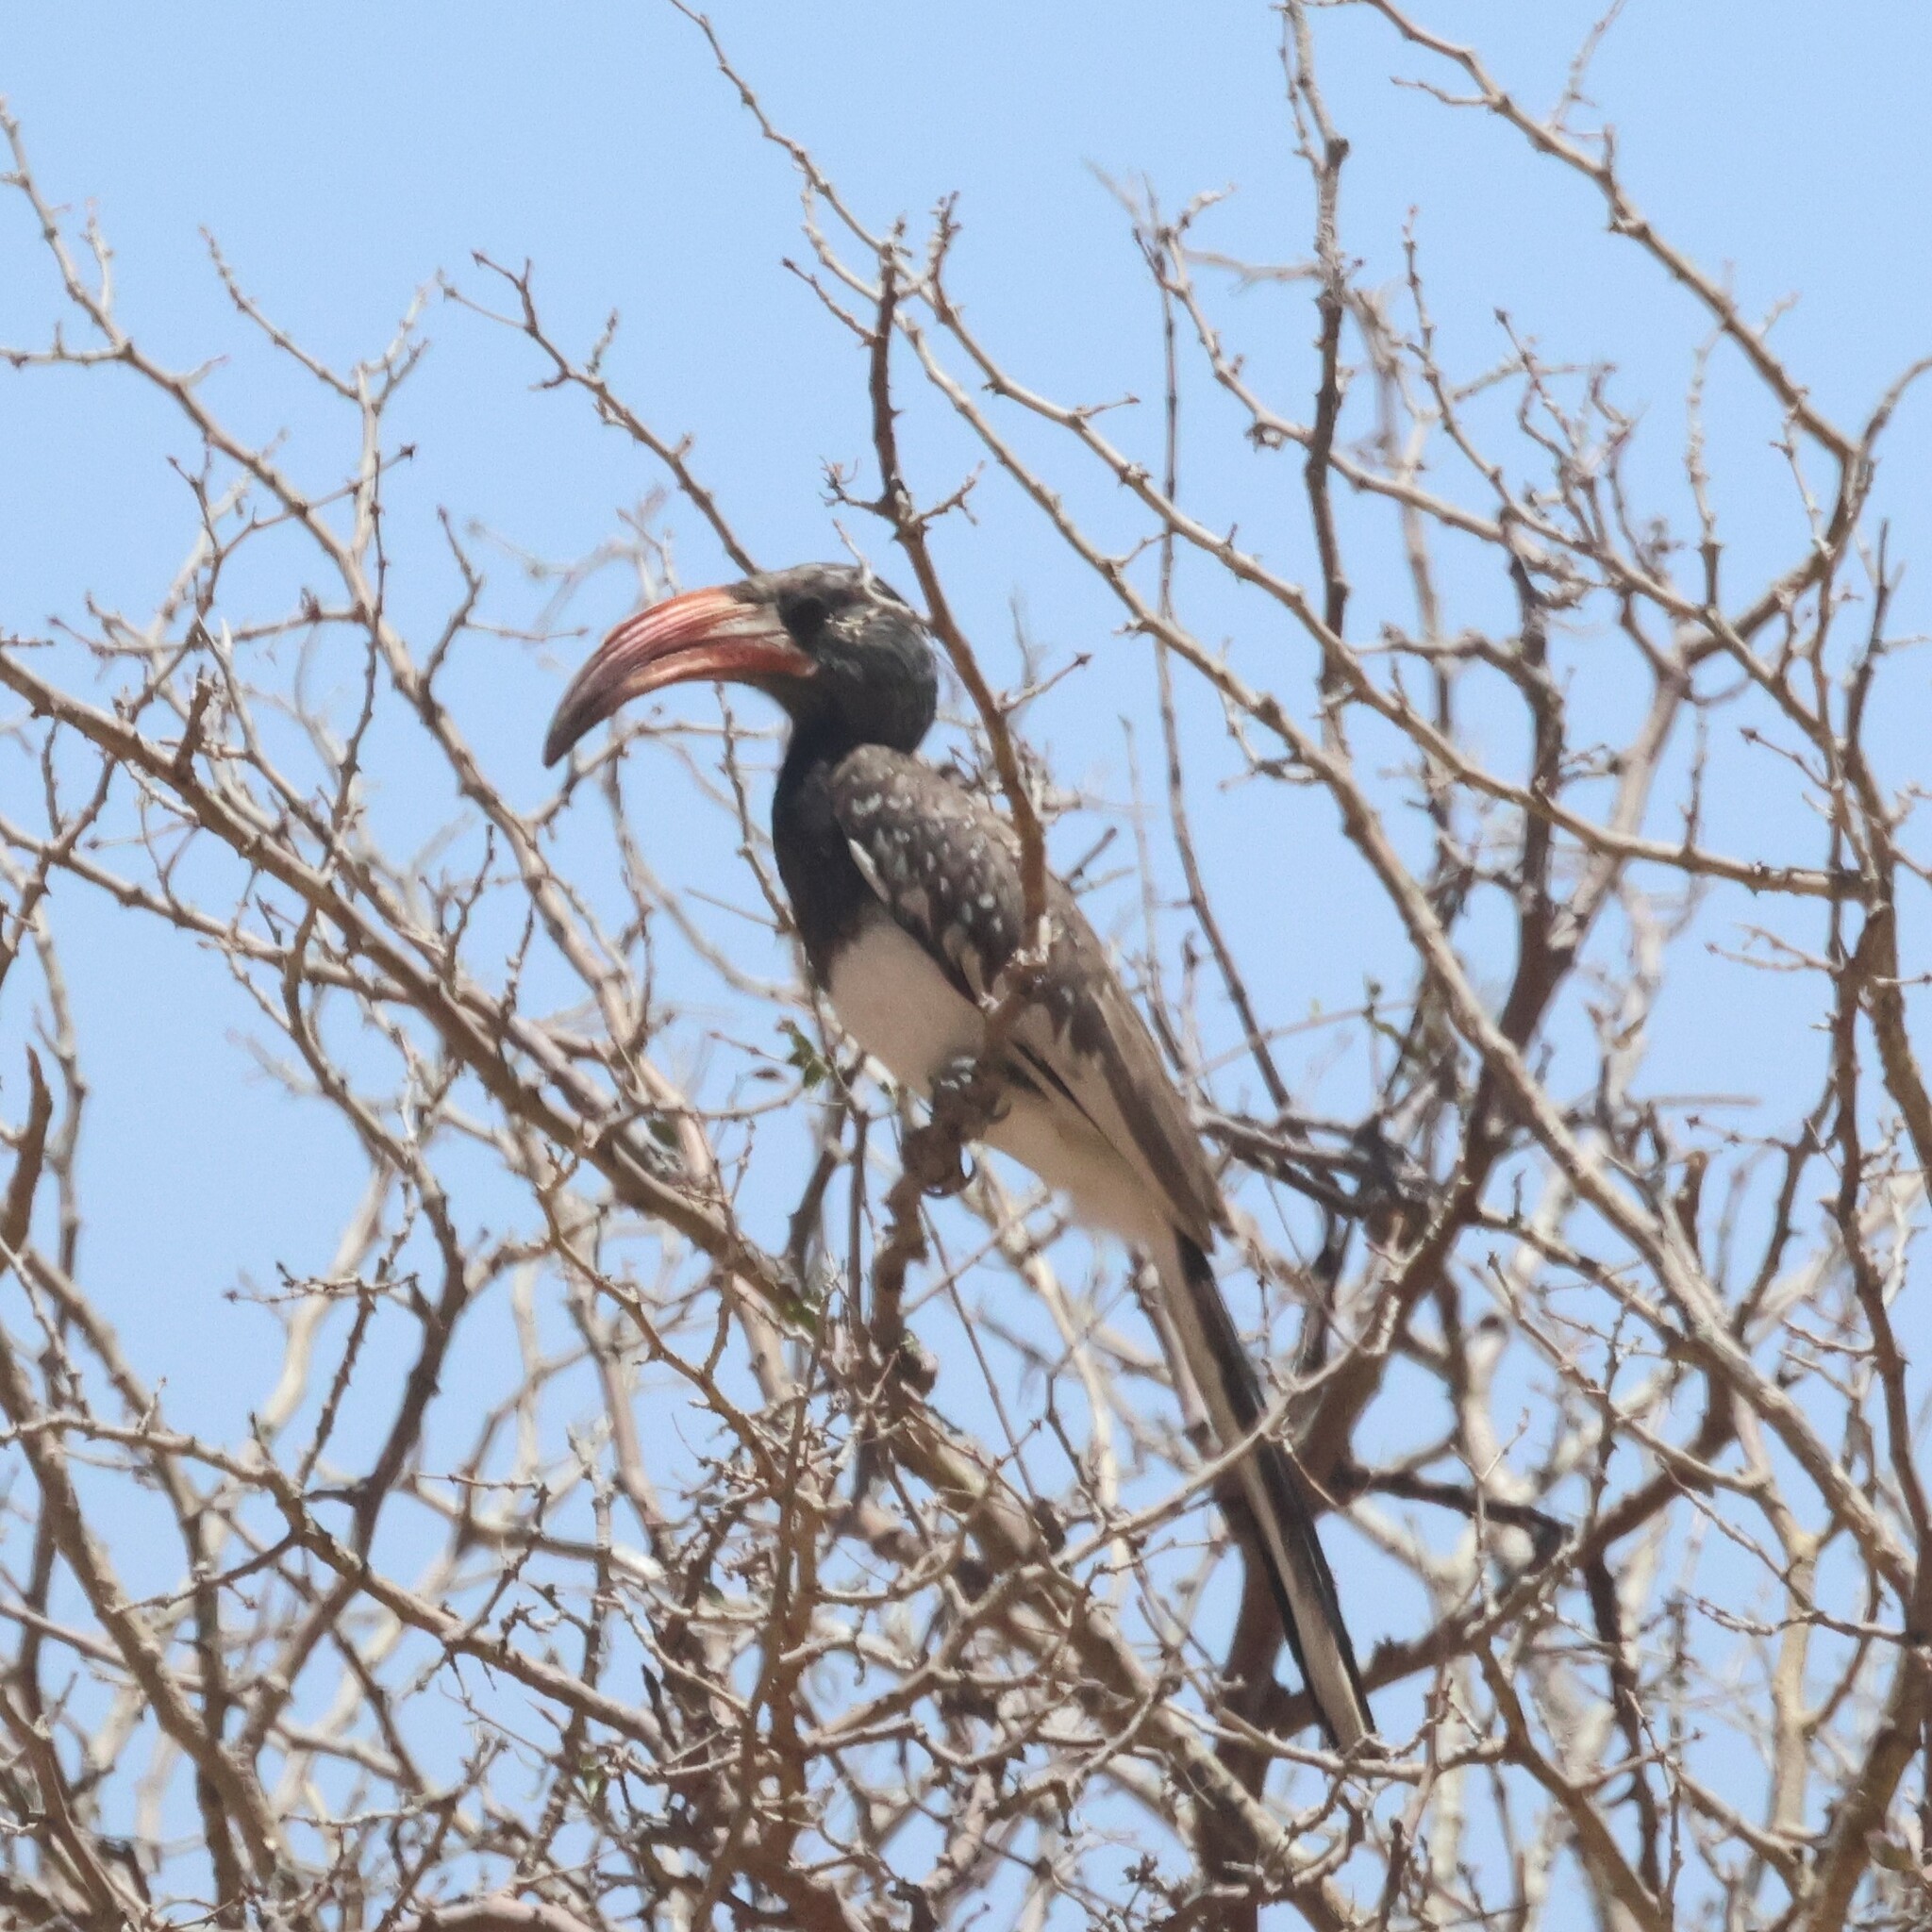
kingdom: Animalia
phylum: Chordata
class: Aves
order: Bucerotiformes
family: Bucerotidae
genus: Tockus
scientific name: Tockus monteiri
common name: Monteiro's hornbill
